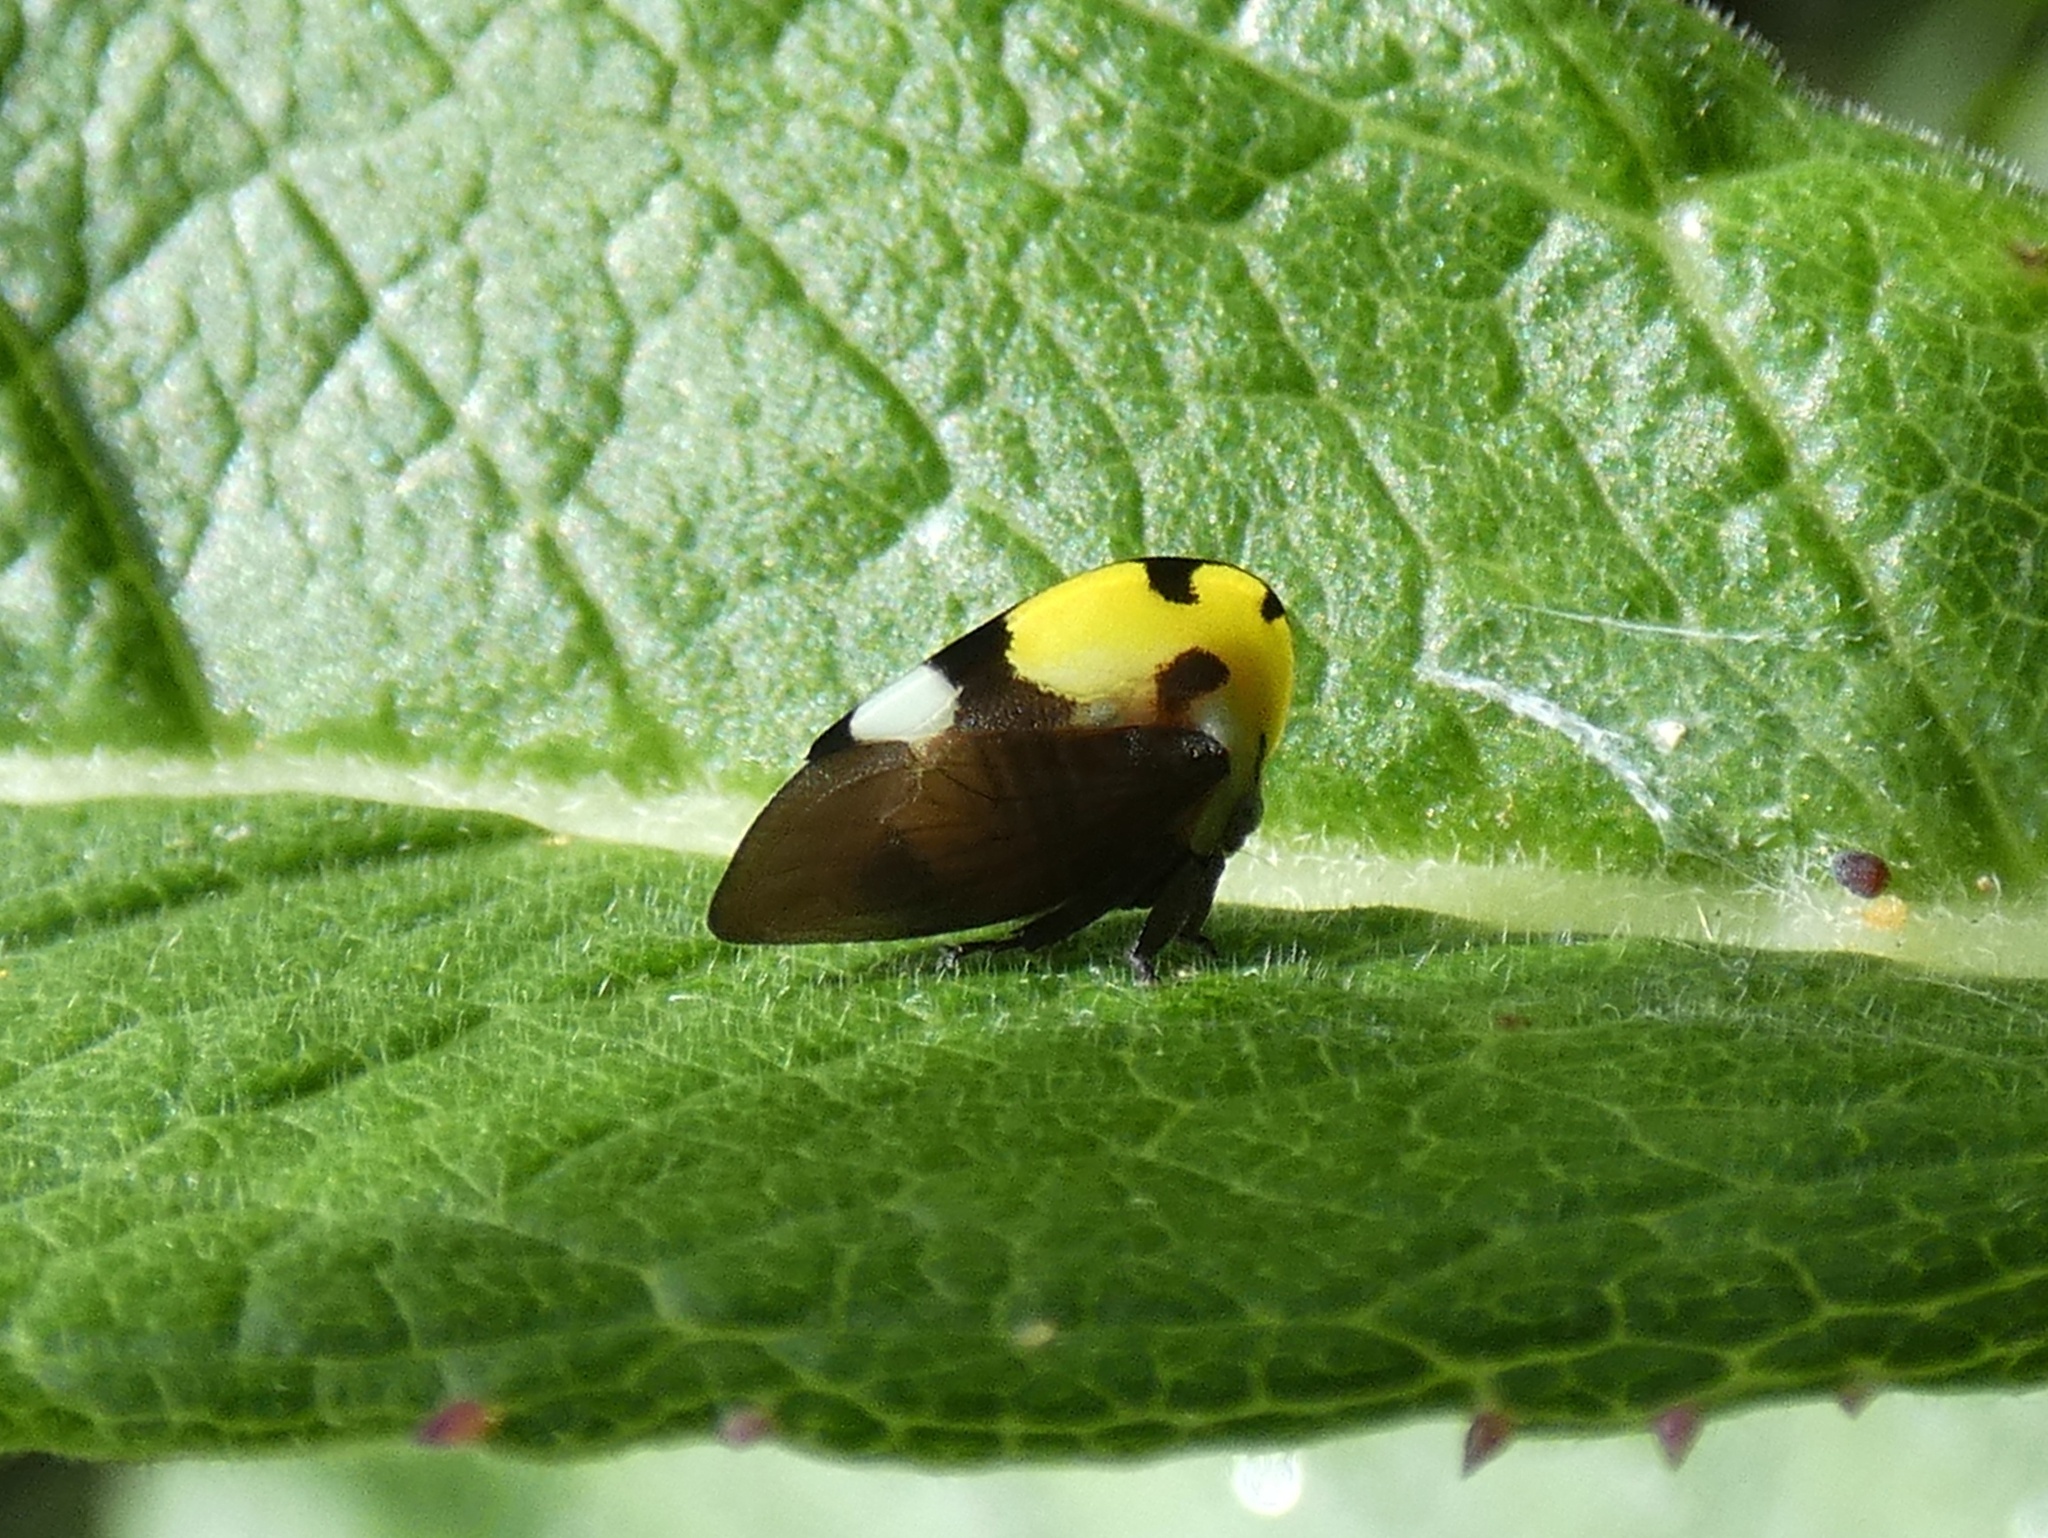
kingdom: Animalia
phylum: Arthropoda
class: Insecta
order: Hemiptera
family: Membracidae
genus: Membracis
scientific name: Membracis mexicana
